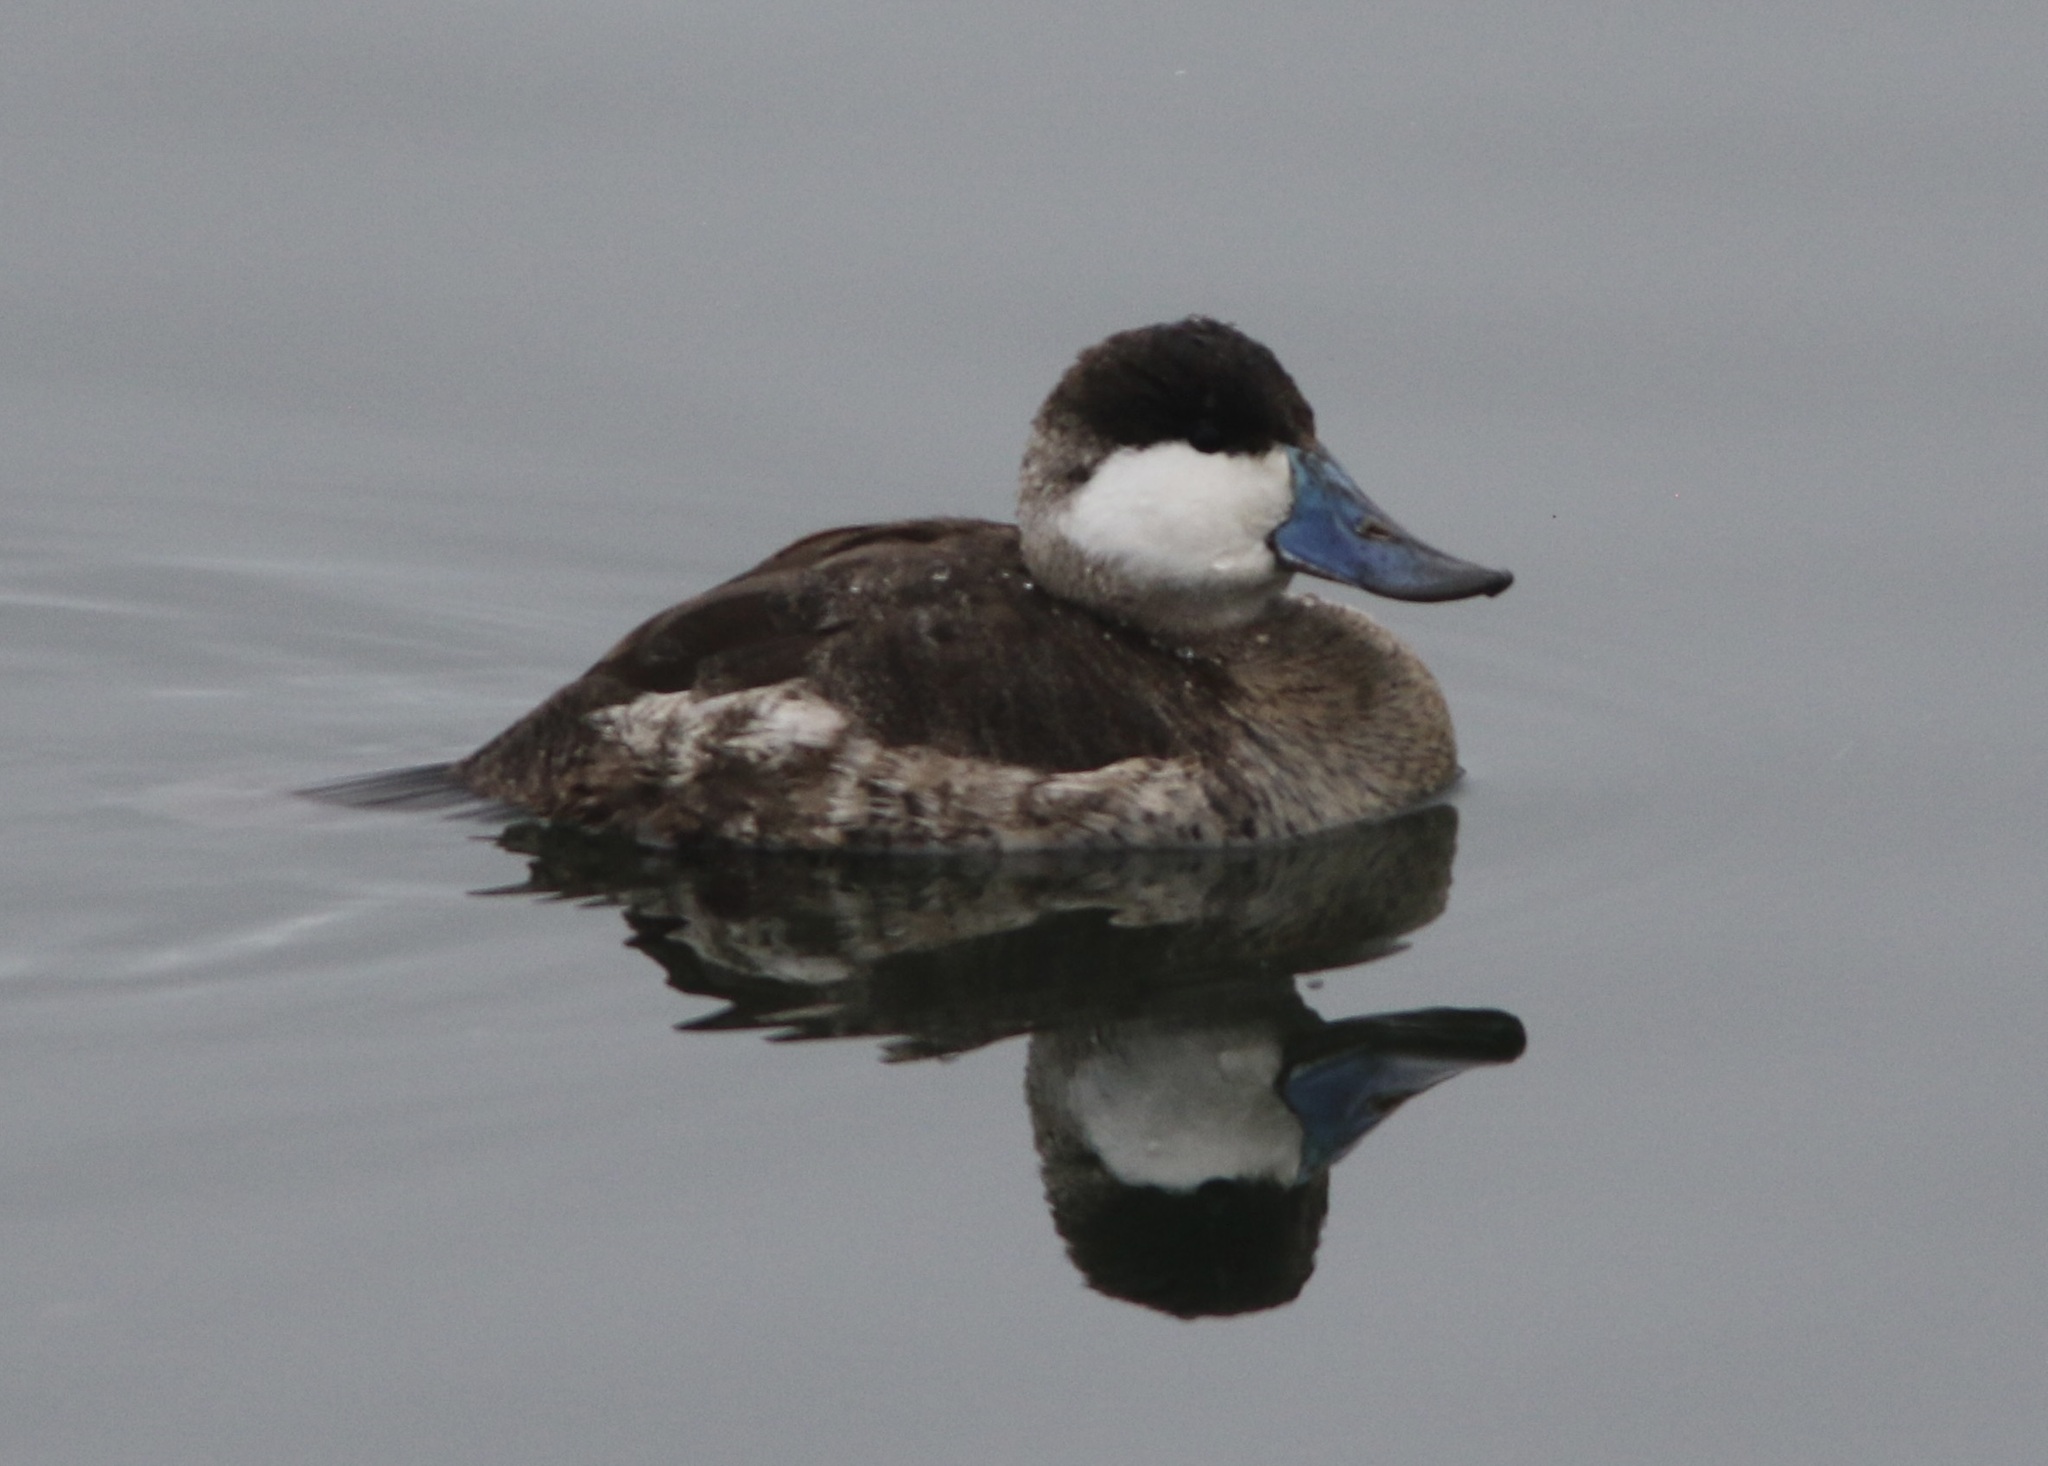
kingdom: Animalia
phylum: Chordata
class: Aves
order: Anseriformes
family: Anatidae
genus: Oxyura
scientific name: Oxyura jamaicensis
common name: Ruddy duck
